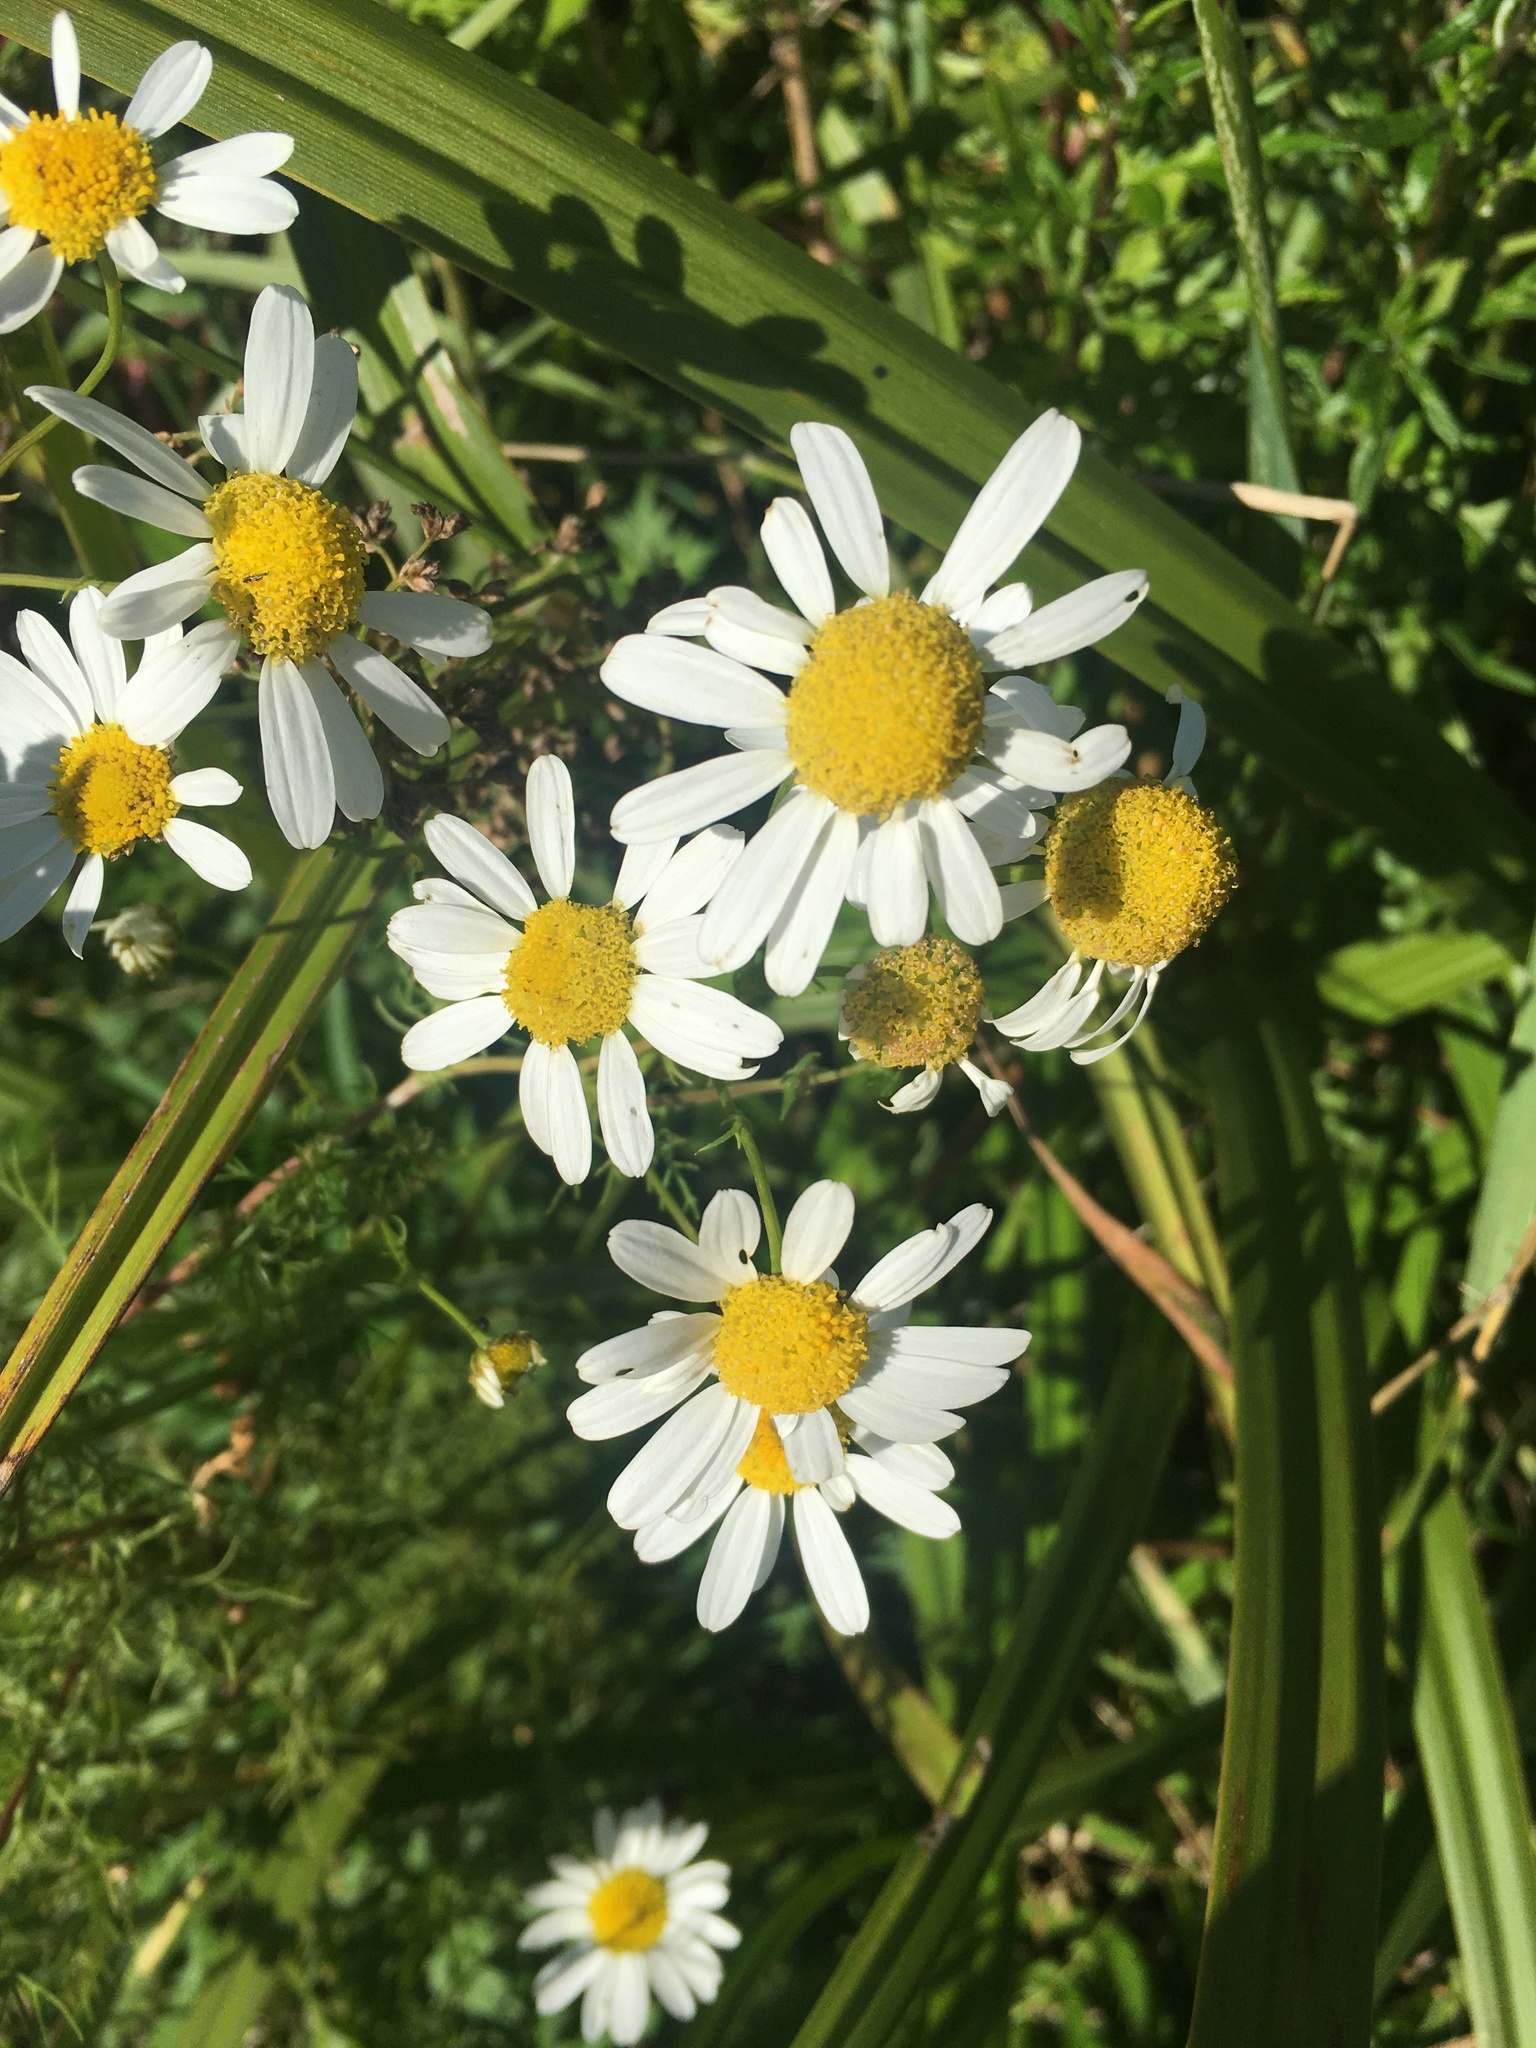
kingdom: Plantae
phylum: Tracheophyta
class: Magnoliopsida
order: Asterales
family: Asteraceae
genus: Tripleurospermum
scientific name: Tripleurospermum inodorum
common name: Scentless mayweed
